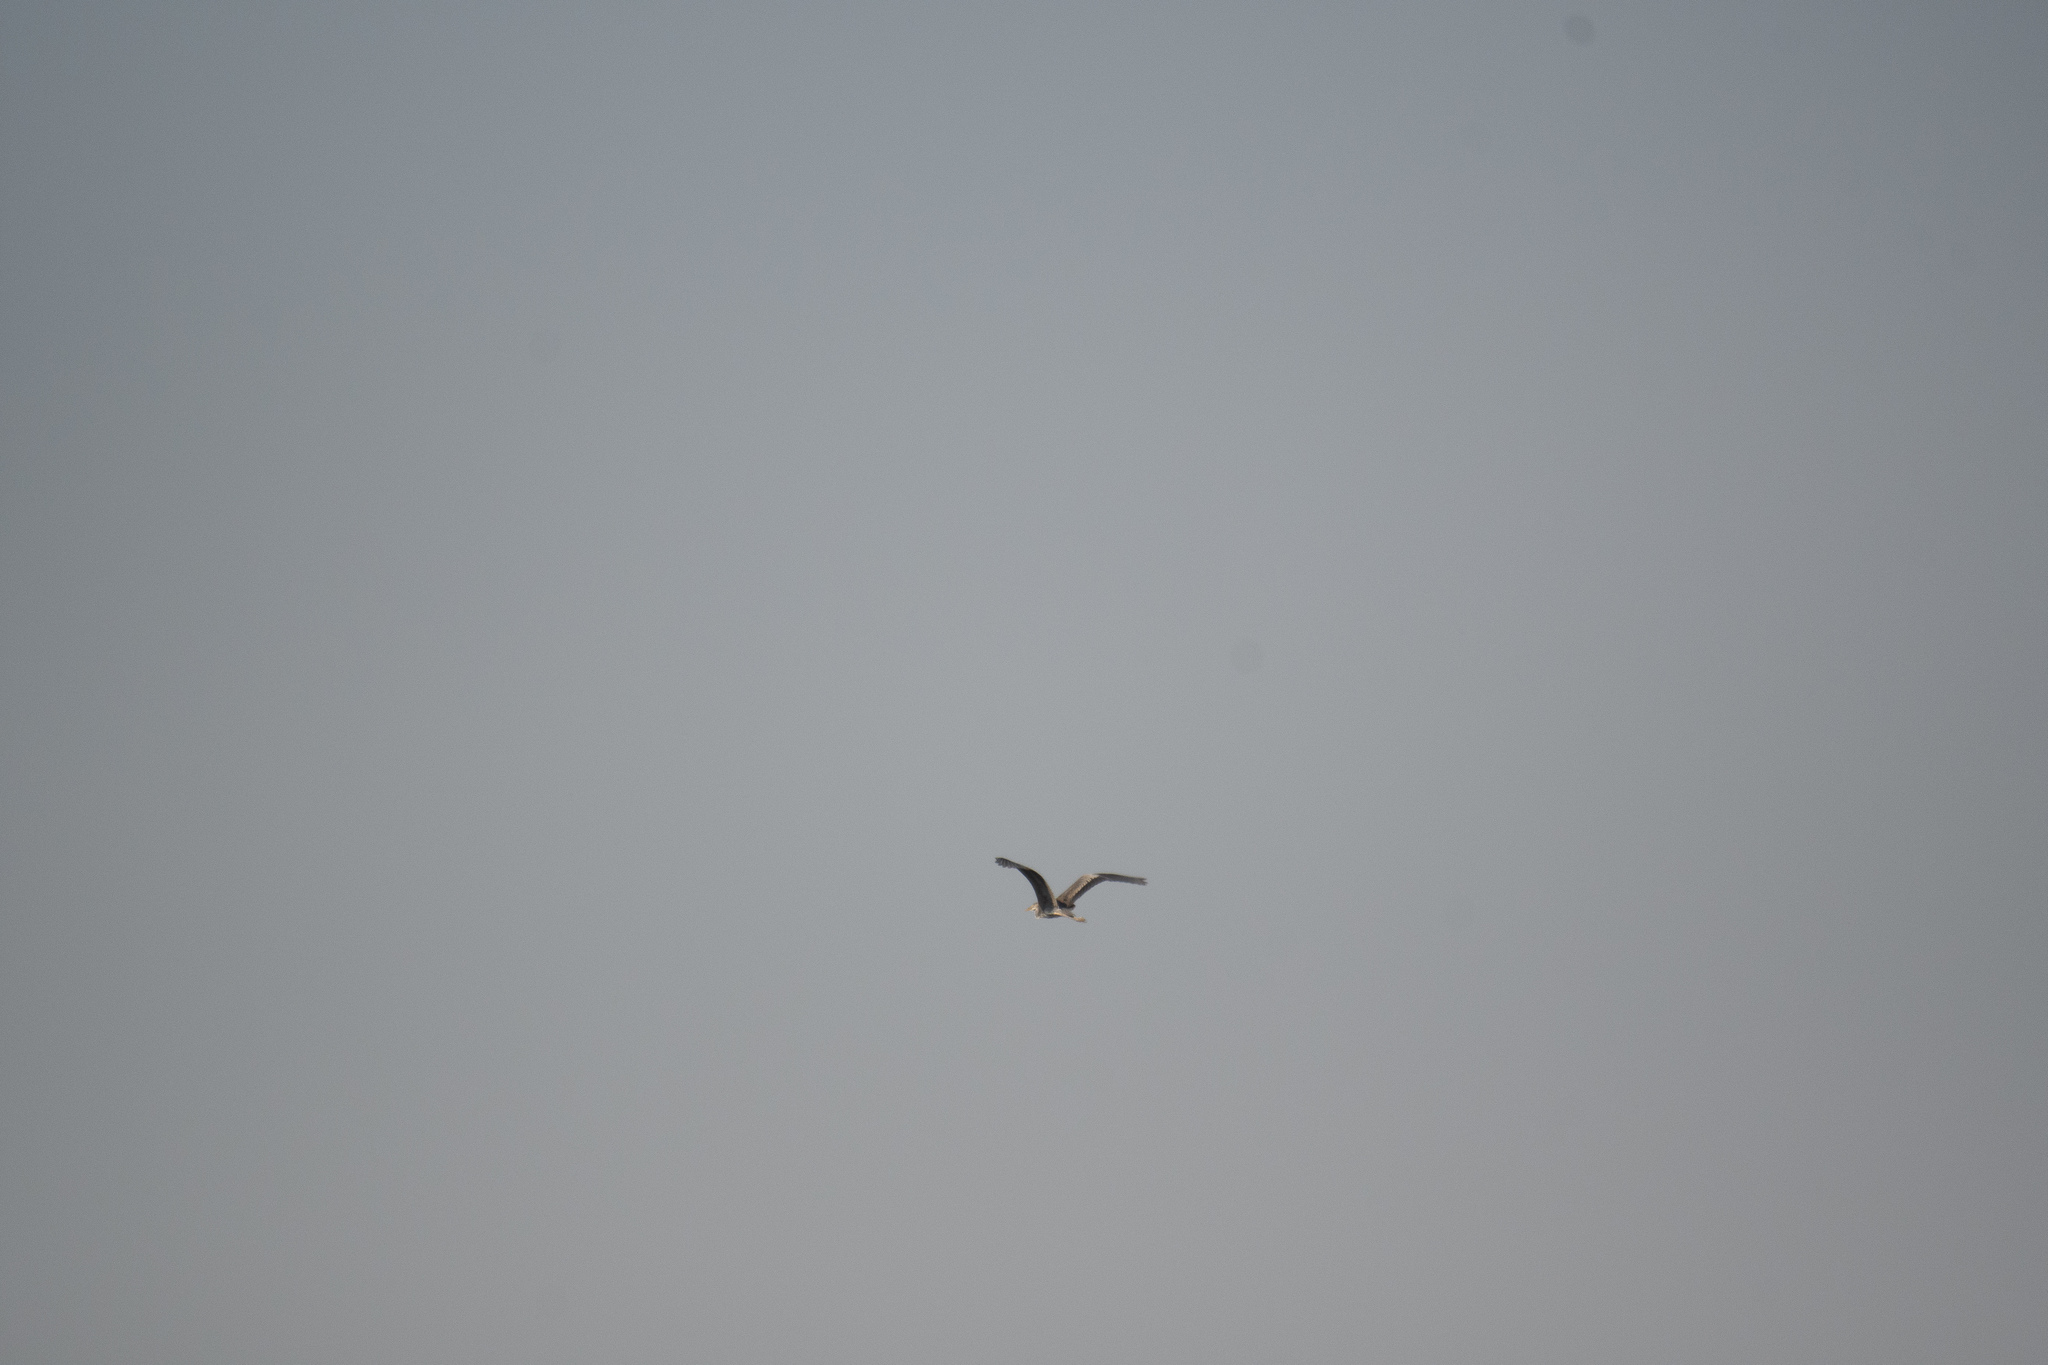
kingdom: Animalia
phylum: Chordata
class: Aves
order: Pelecaniformes
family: Ardeidae
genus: Ardea
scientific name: Ardea cinerea
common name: Grey heron
